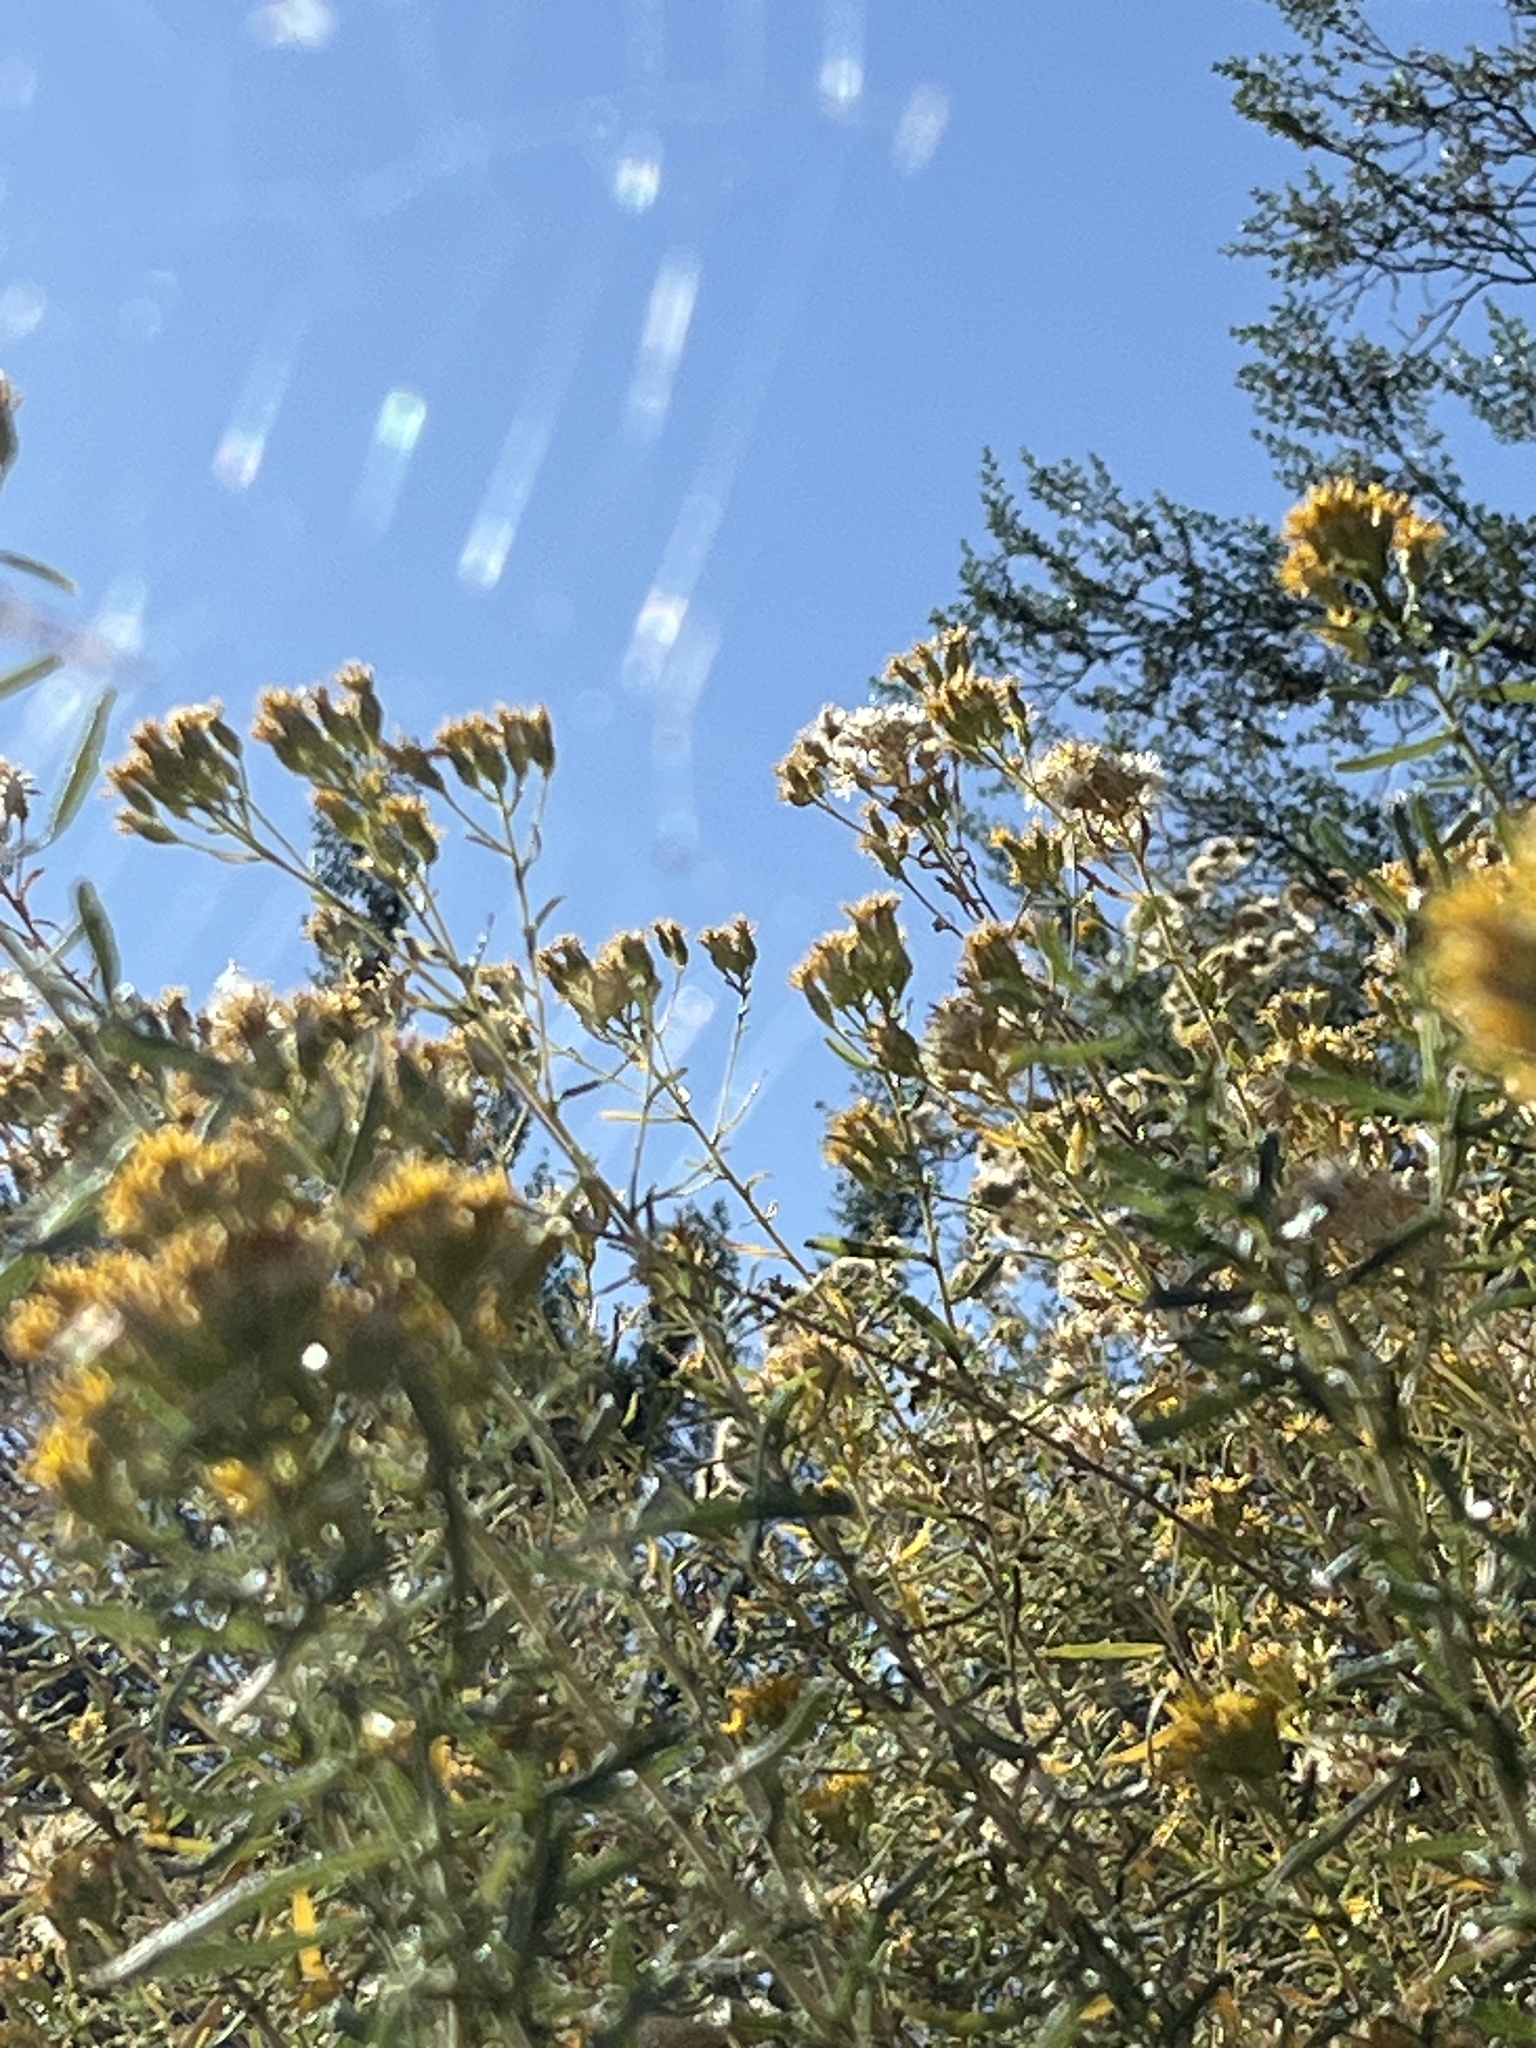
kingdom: Animalia
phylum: Arthropoda
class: Arachnida
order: Araneae
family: Araneidae
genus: Argiope
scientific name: Argiope trifasciata
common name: Banded garden spider
